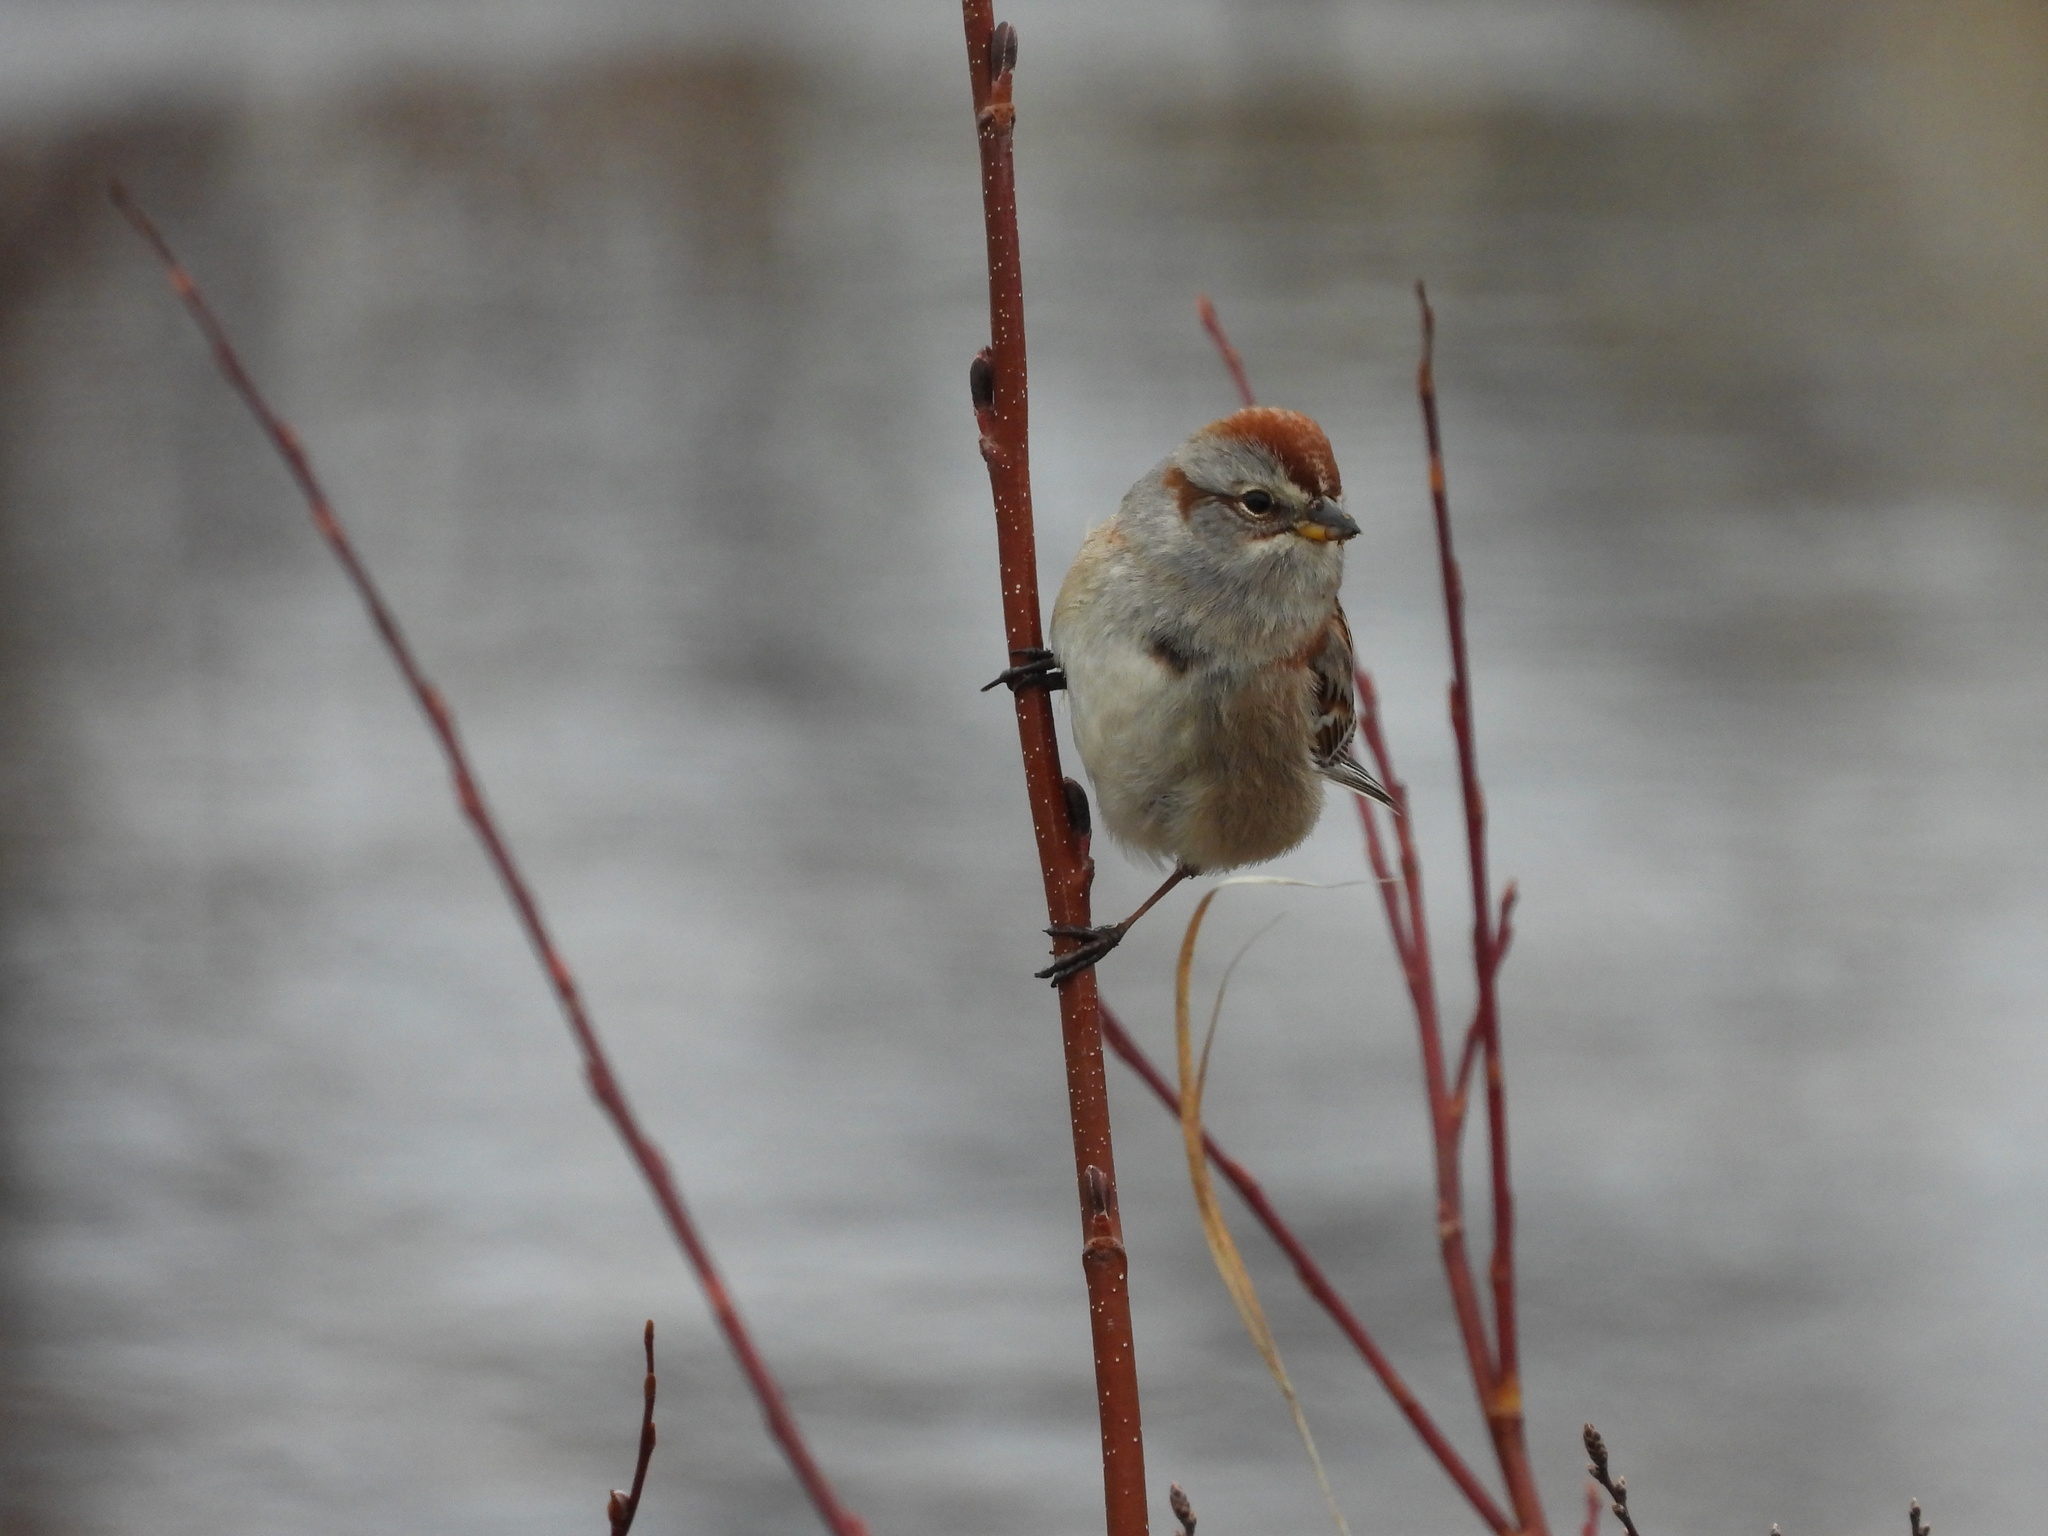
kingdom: Animalia
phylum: Chordata
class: Aves
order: Passeriformes
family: Passerellidae
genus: Spizelloides
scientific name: Spizelloides arborea
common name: American tree sparrow
